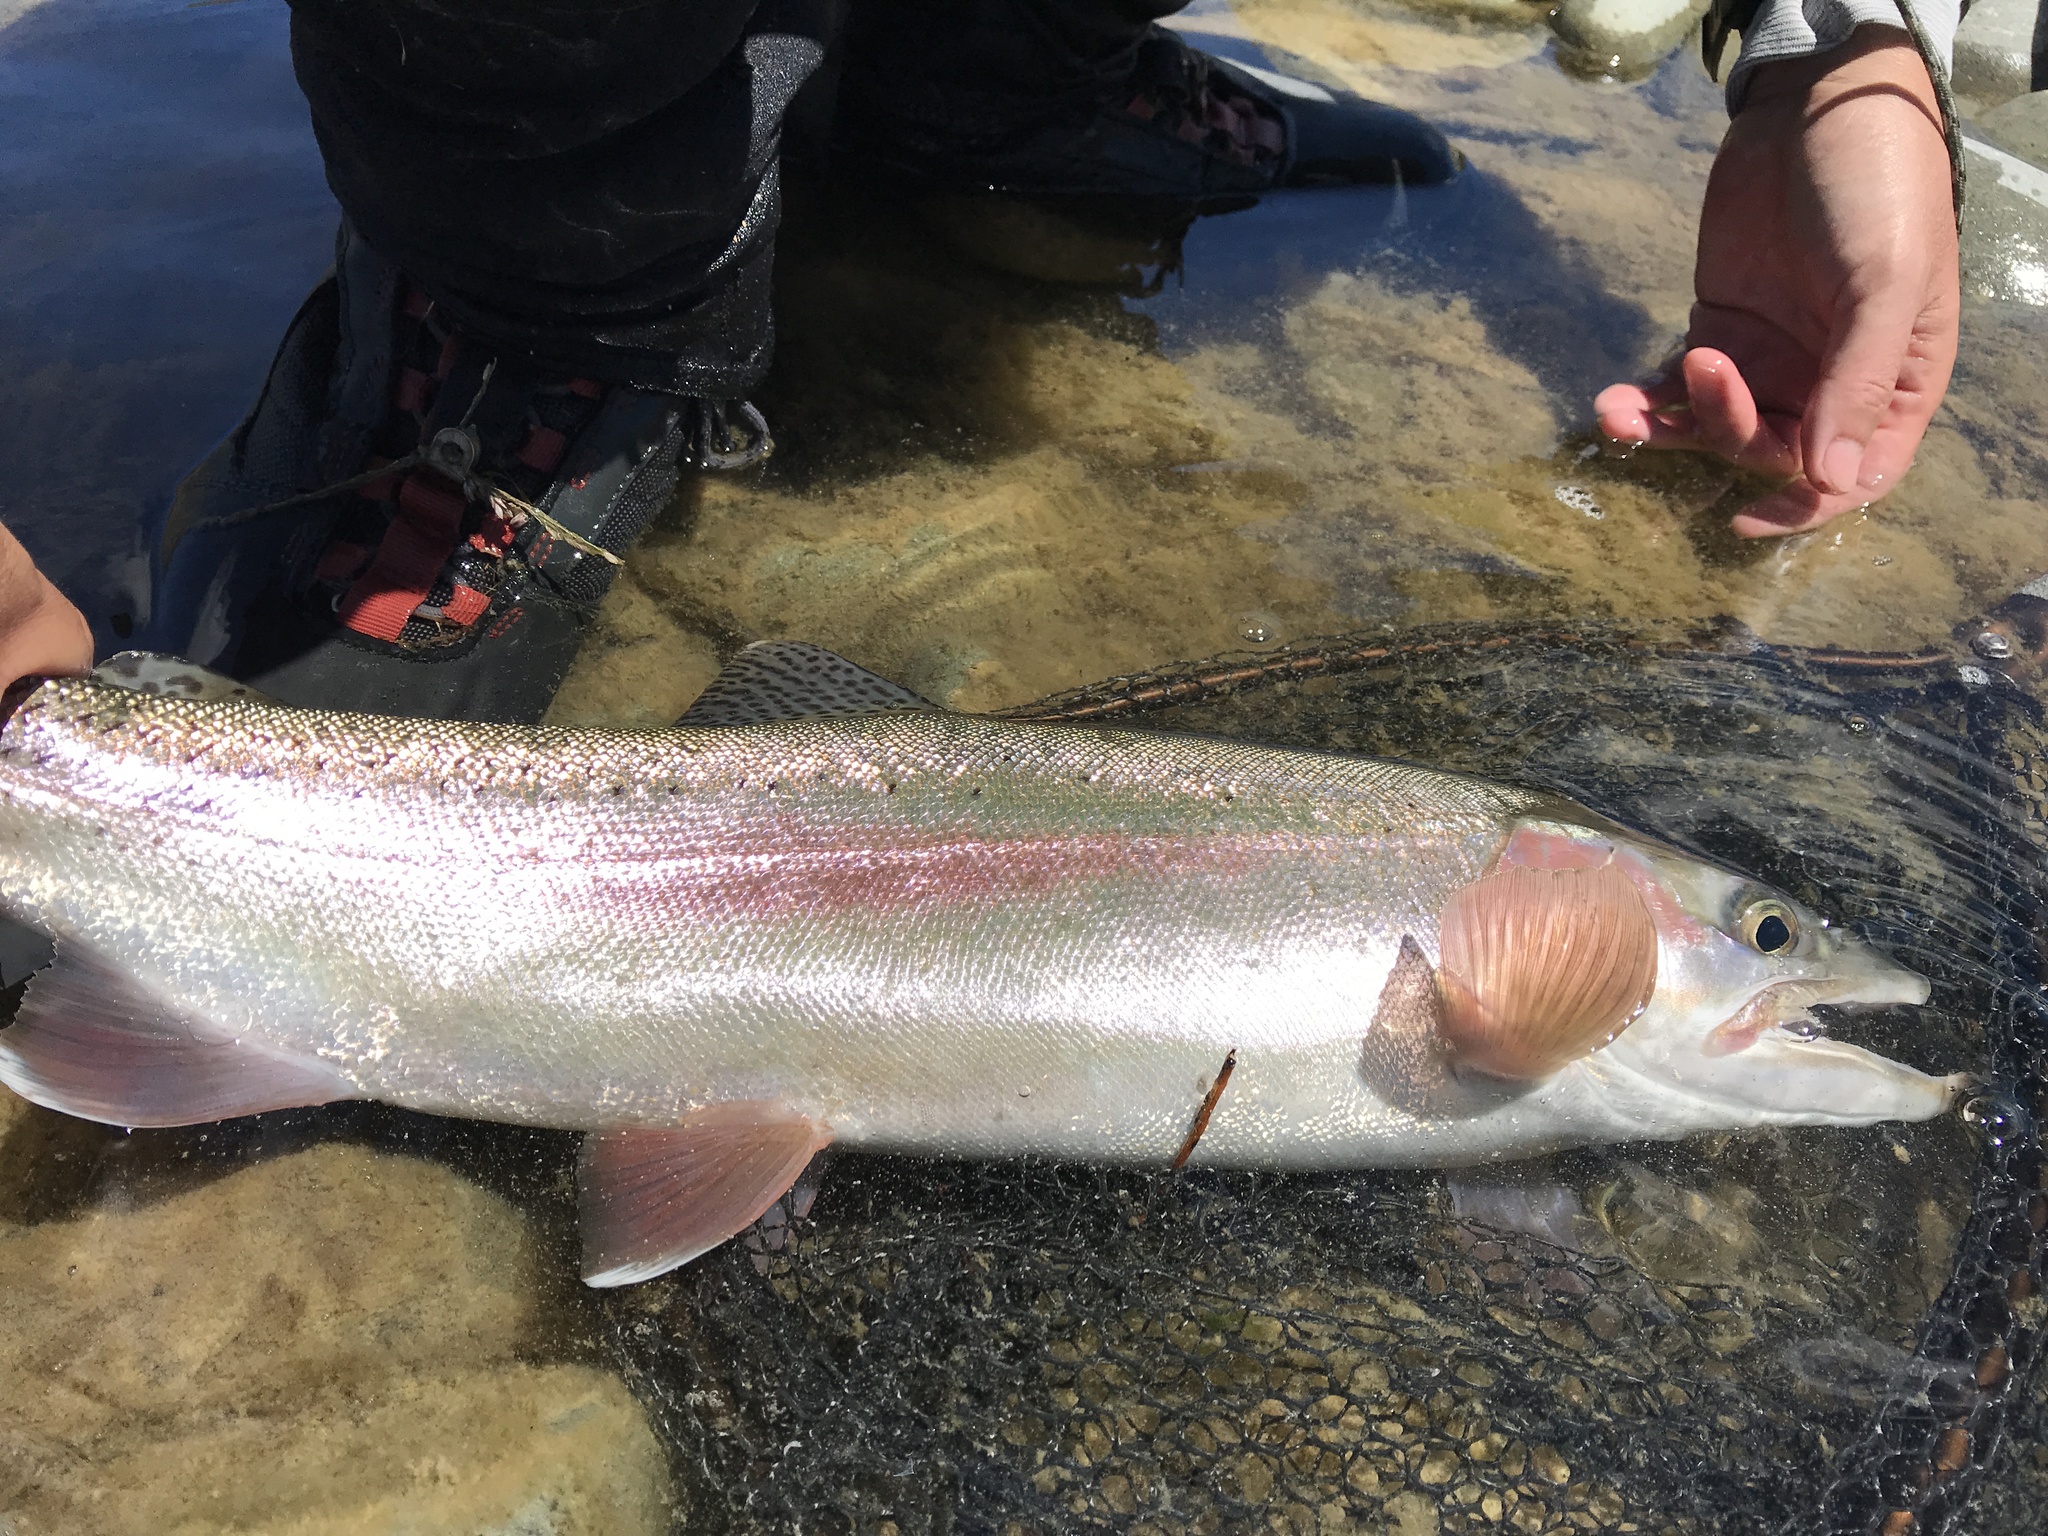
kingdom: Animalia
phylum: Chordata
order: Salmoniformes
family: Salmonidae
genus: Oncorhynchus
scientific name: Oncorhynchus mykiss
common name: Rainbow trout
